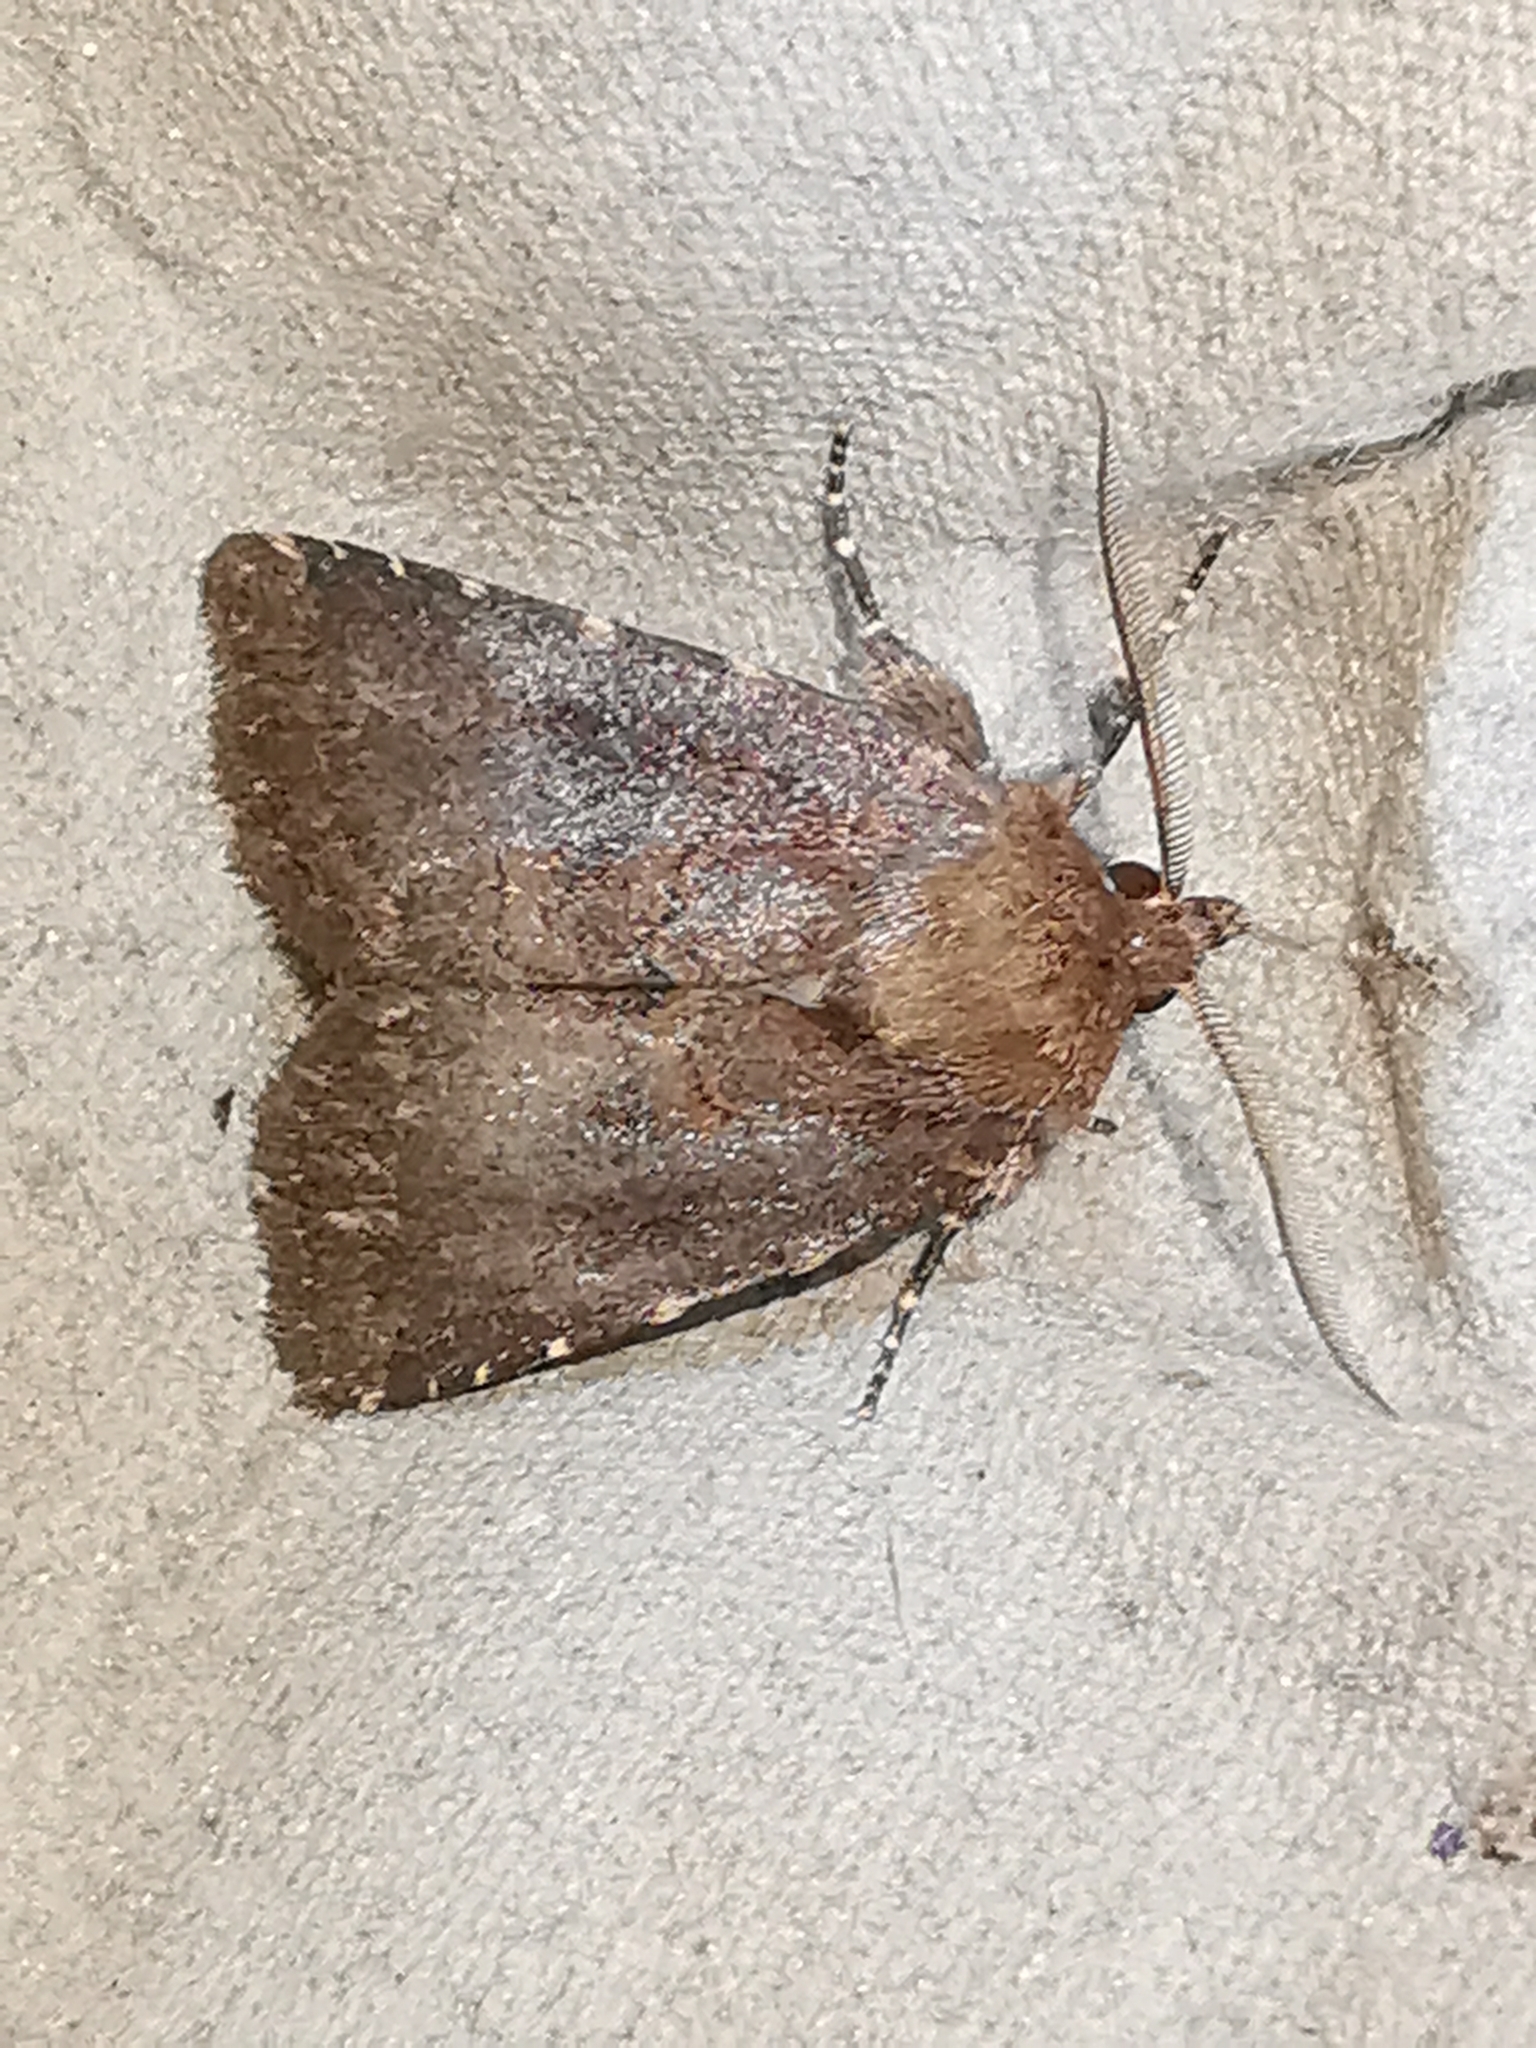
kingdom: Animalia
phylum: Arthropoda
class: Insecta
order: Lepidoptera
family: Noctuidae
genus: Charanyca
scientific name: Charanyca ferruginea
